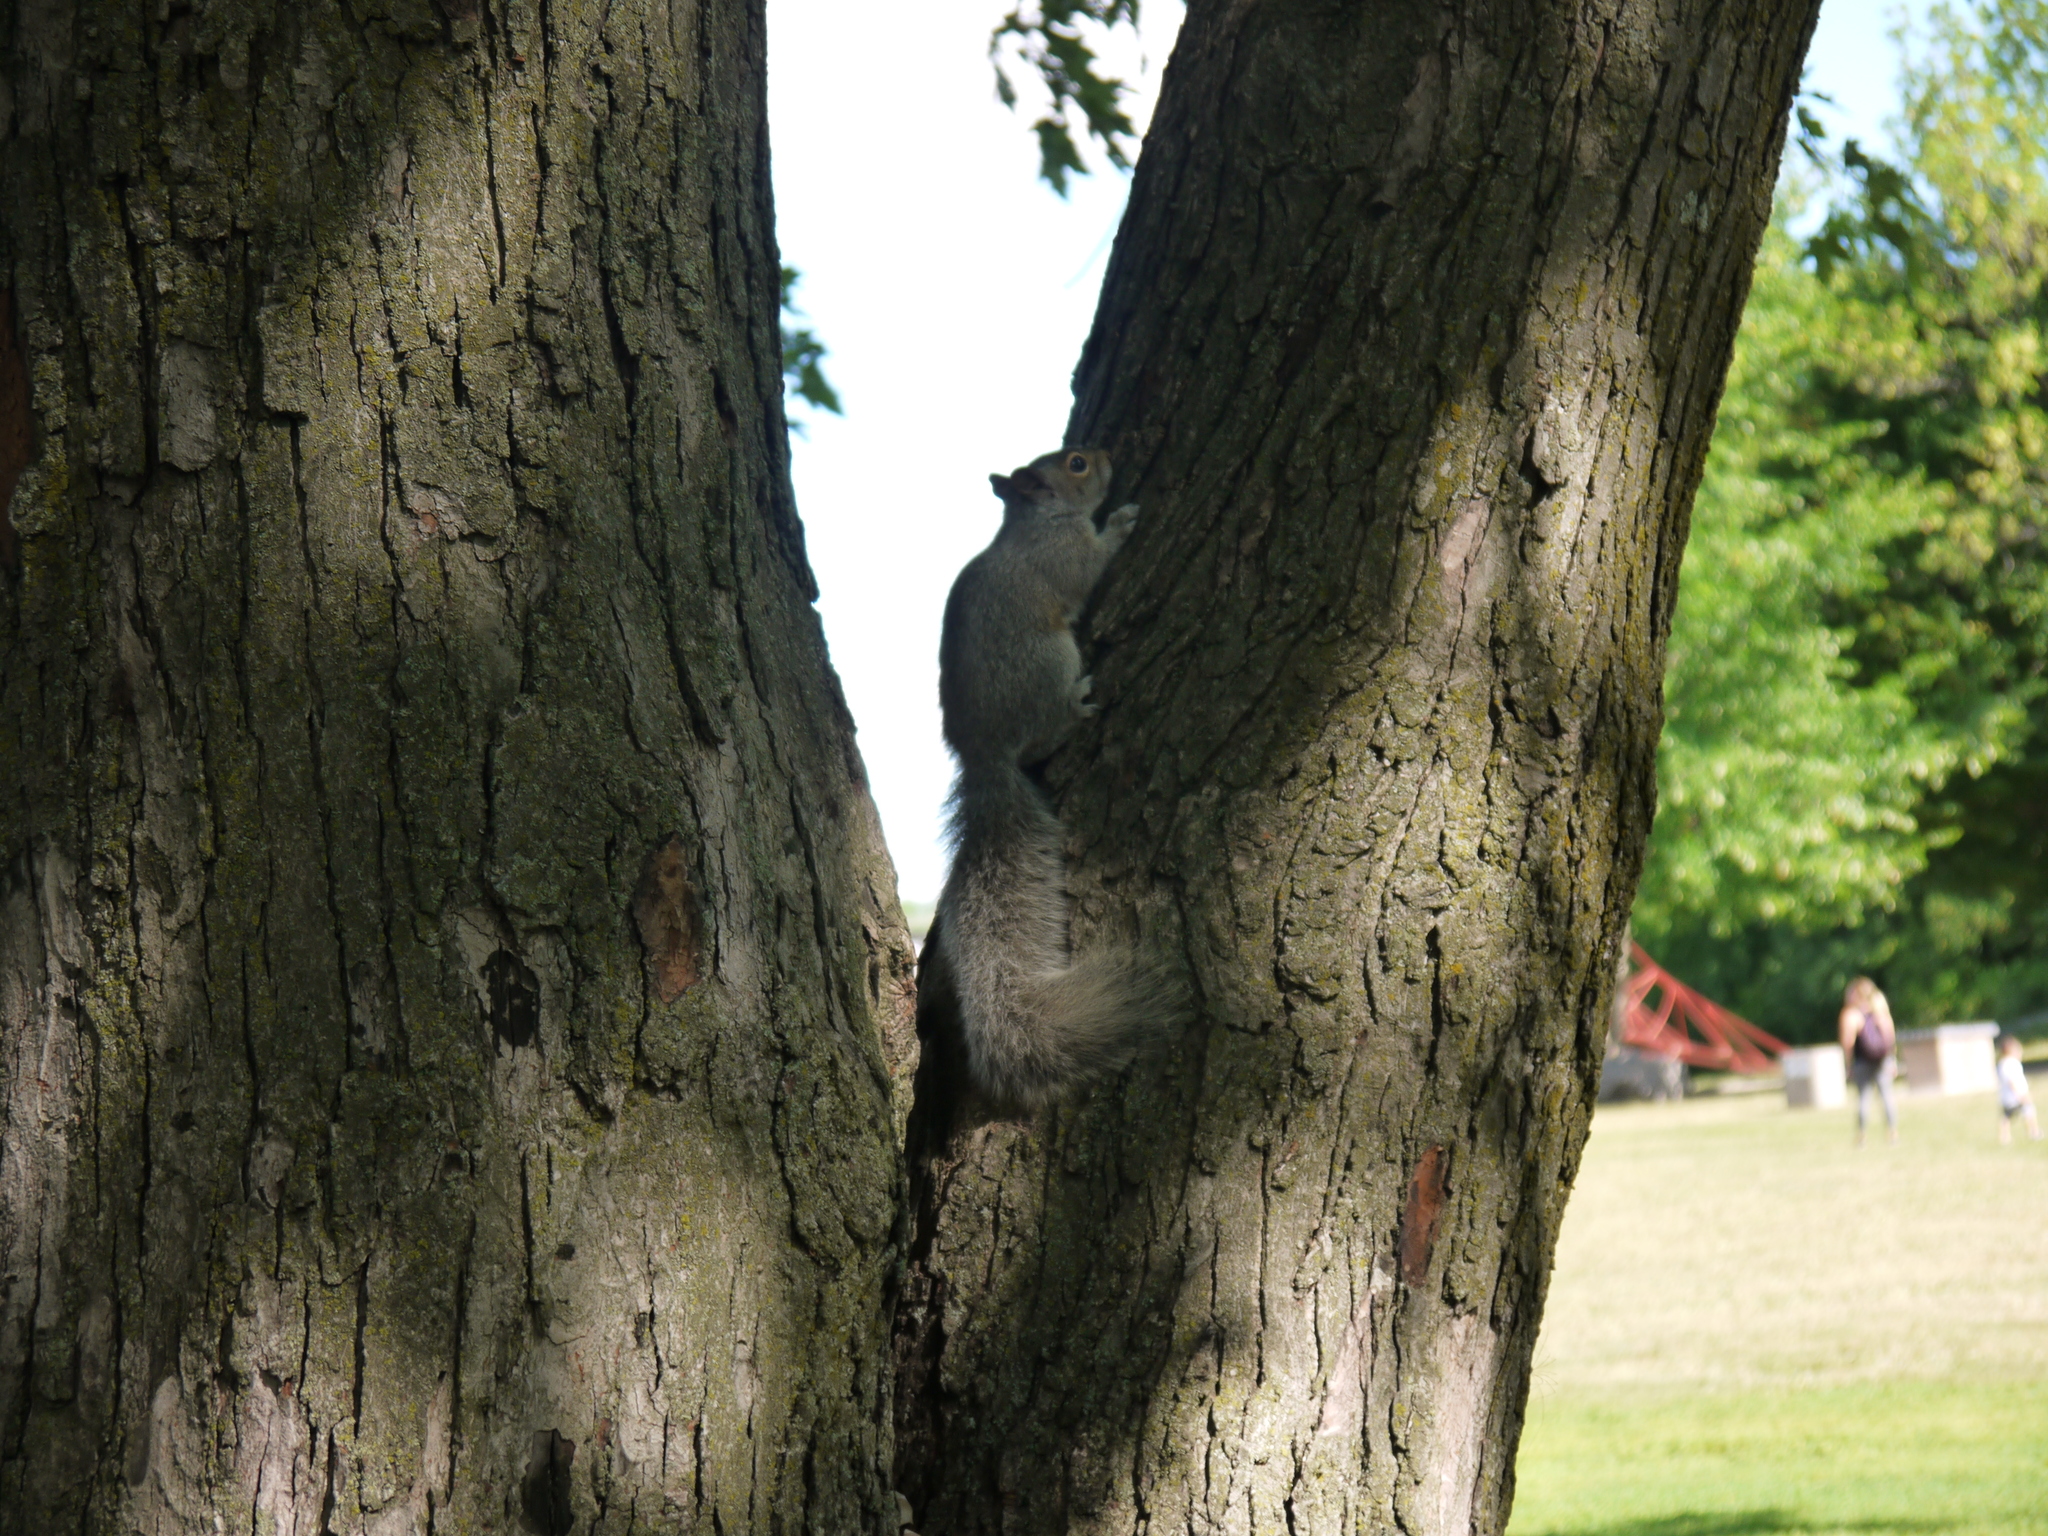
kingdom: Animalia
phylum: Chordata
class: Mammalia
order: Rodentia
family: Sciuridae
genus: Sciurus
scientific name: Sciurus carolinensis
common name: Eastern gray squirrel
